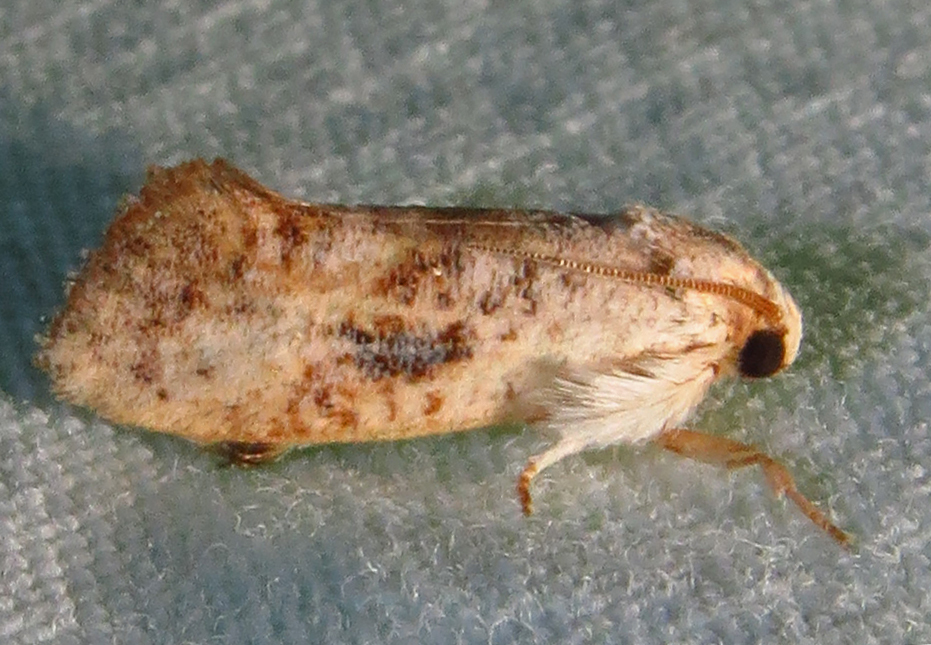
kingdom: Animalia
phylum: Arthropoda
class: Insecta
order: Lepidoptera
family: Tineidae
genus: Acrolophus
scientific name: Acrolophus mycetophagus
